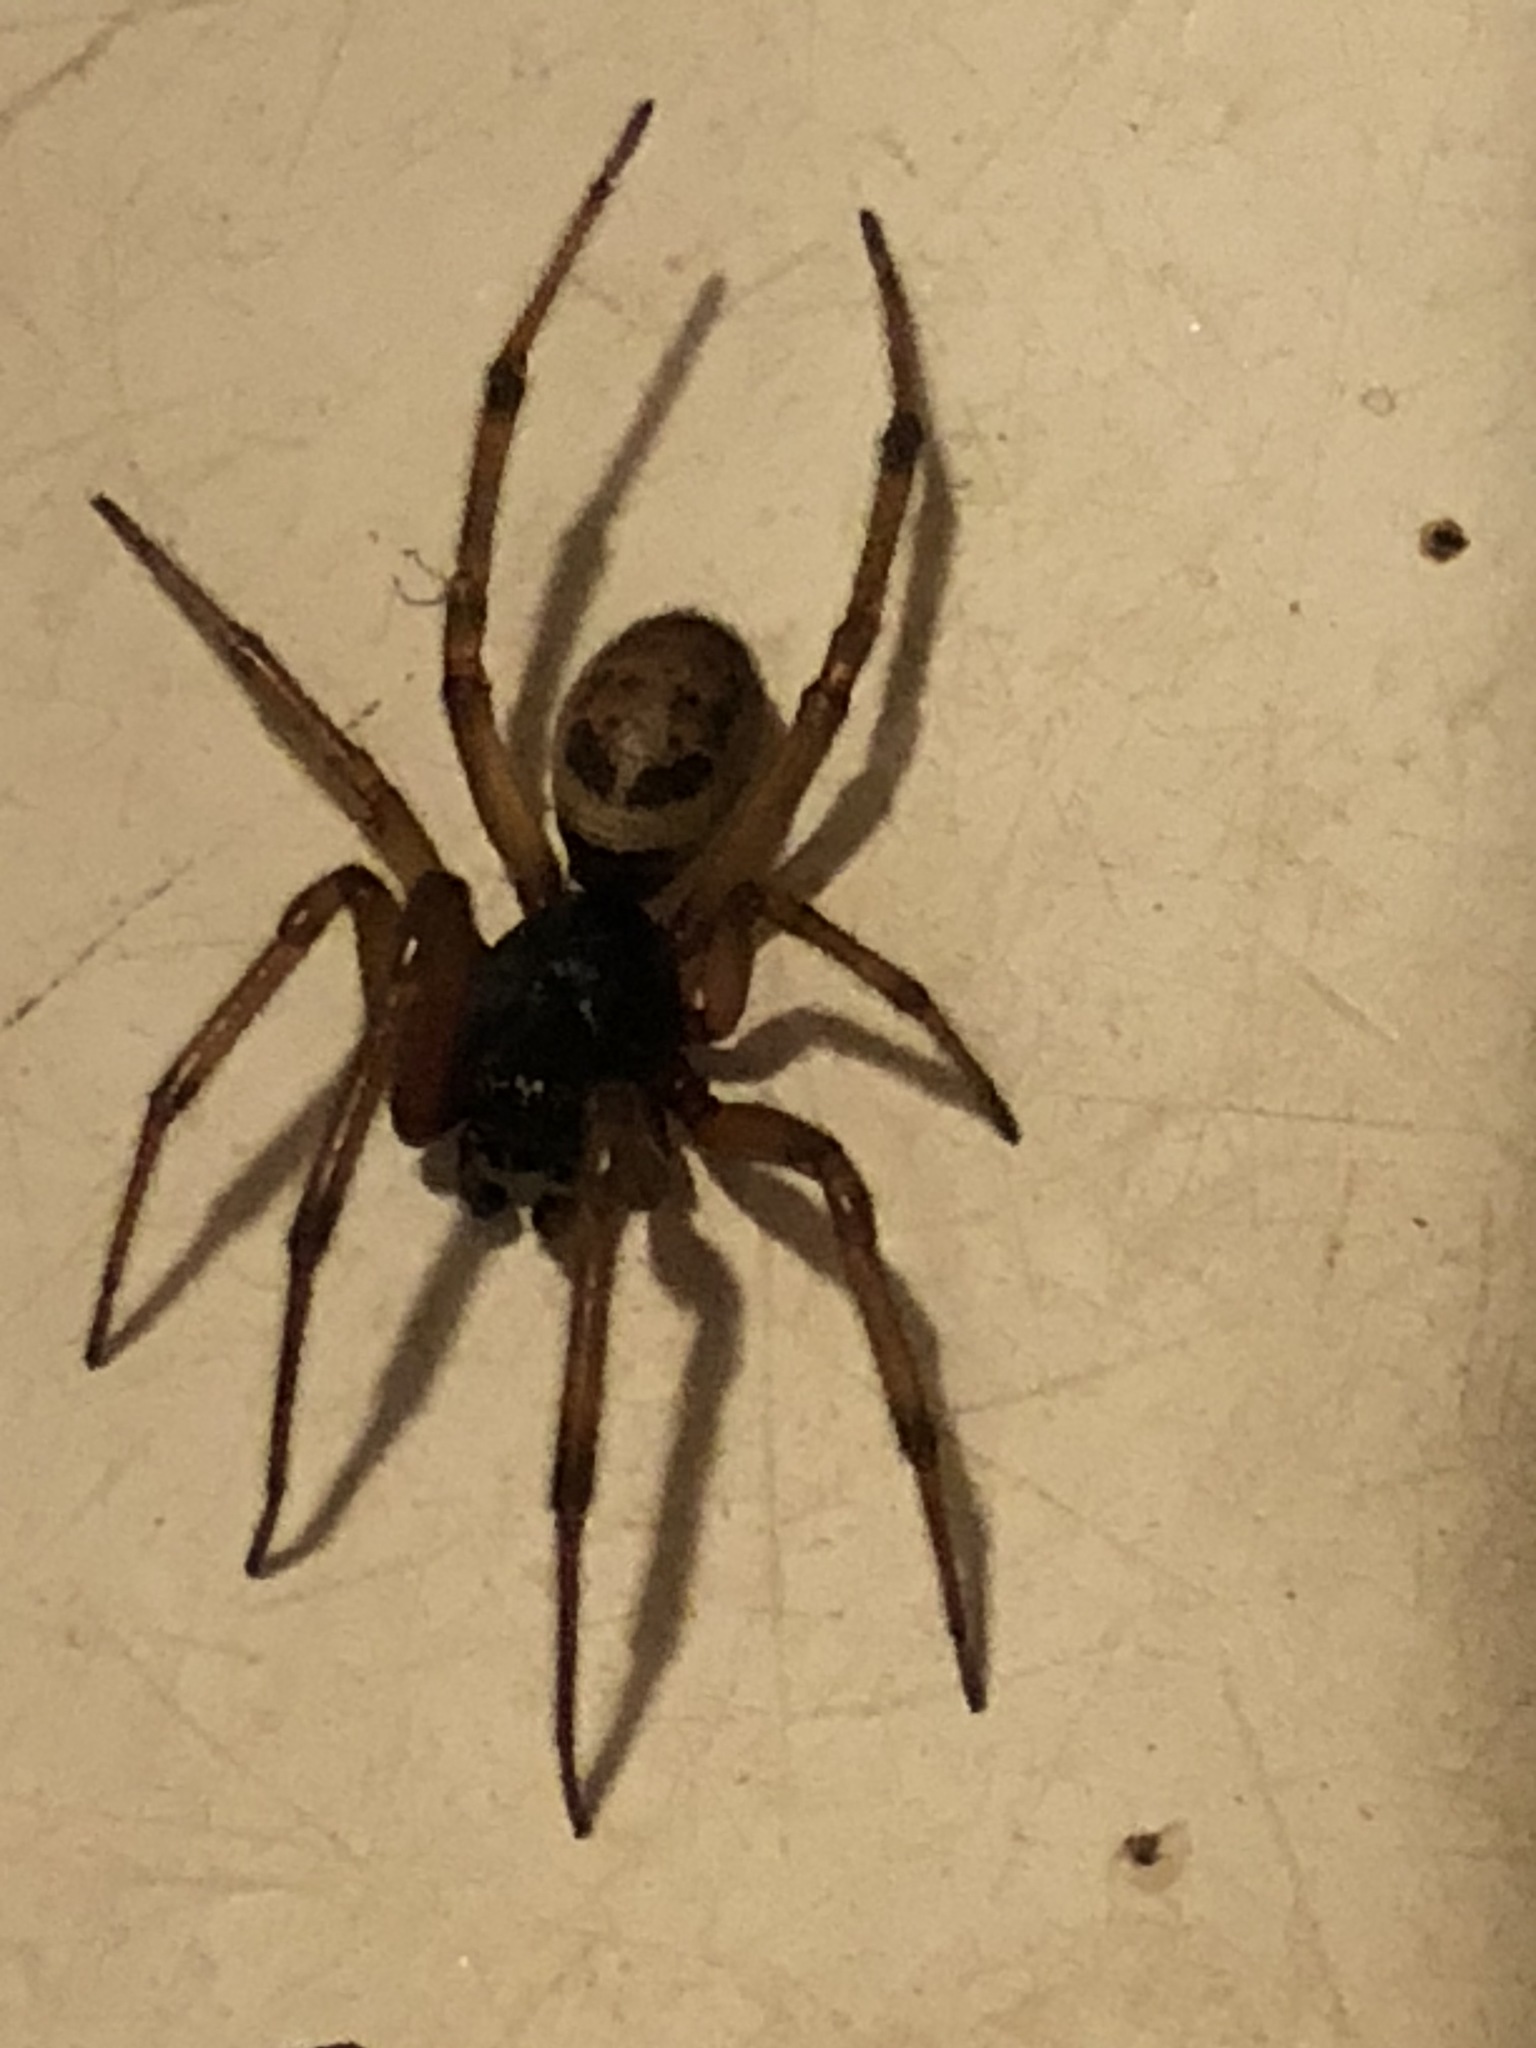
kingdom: Animalia
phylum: Arthropoda
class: Arachnida
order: Araneae
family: Theridiidae
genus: Steatoda
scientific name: Steatoda nobilis
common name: Cobweb weaver
